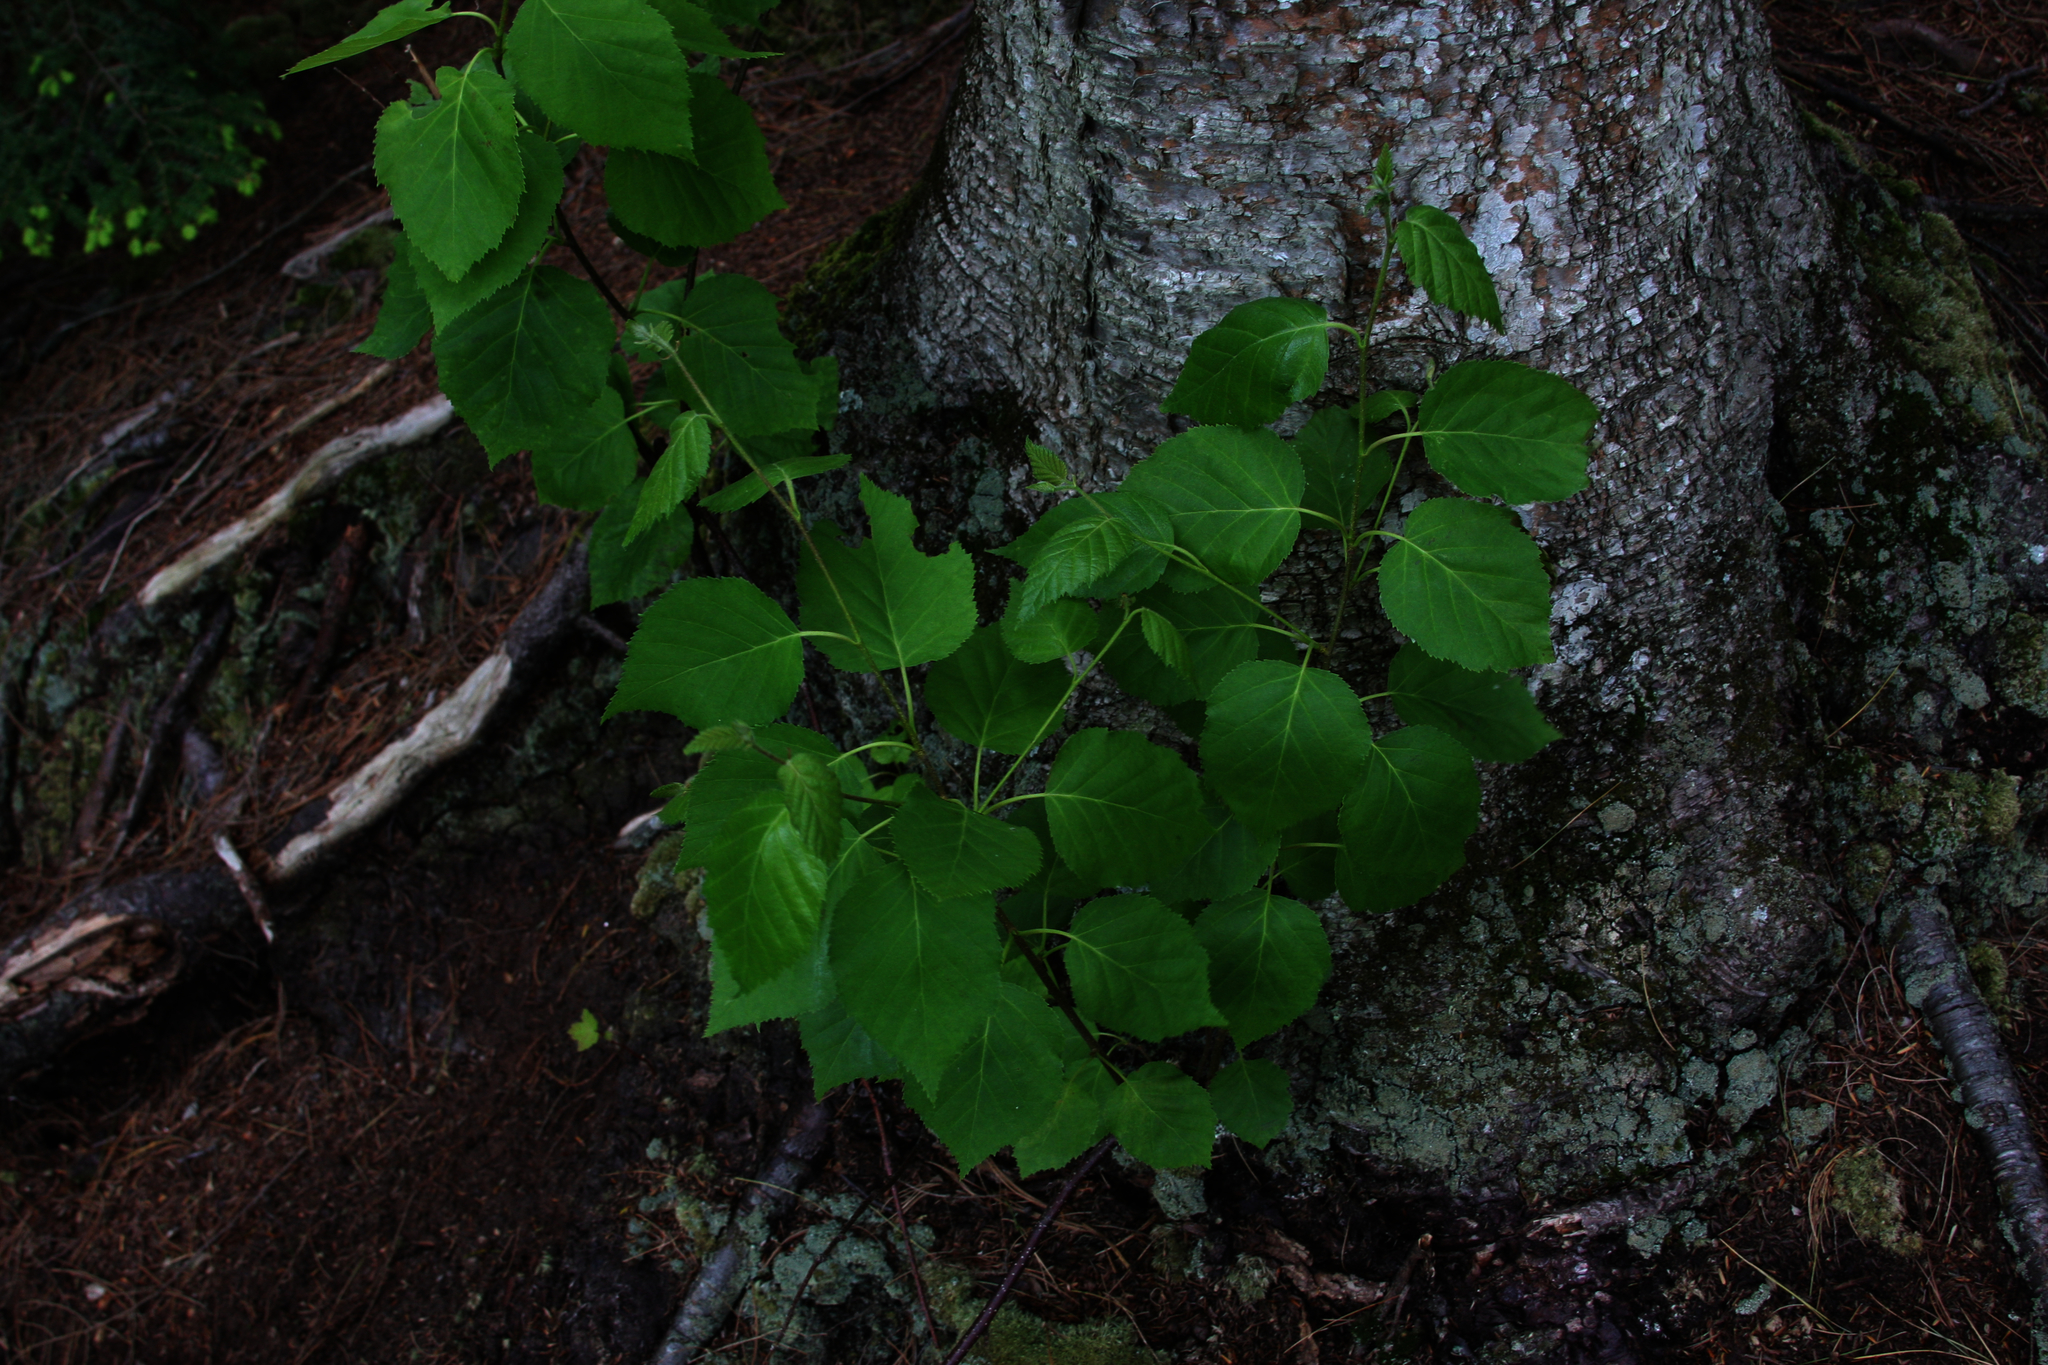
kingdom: Plantae
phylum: Tracheophyta
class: Magnoliopsida
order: Malvales
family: Malvaceae
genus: Tilia
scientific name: Tilia americana
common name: Basswood
